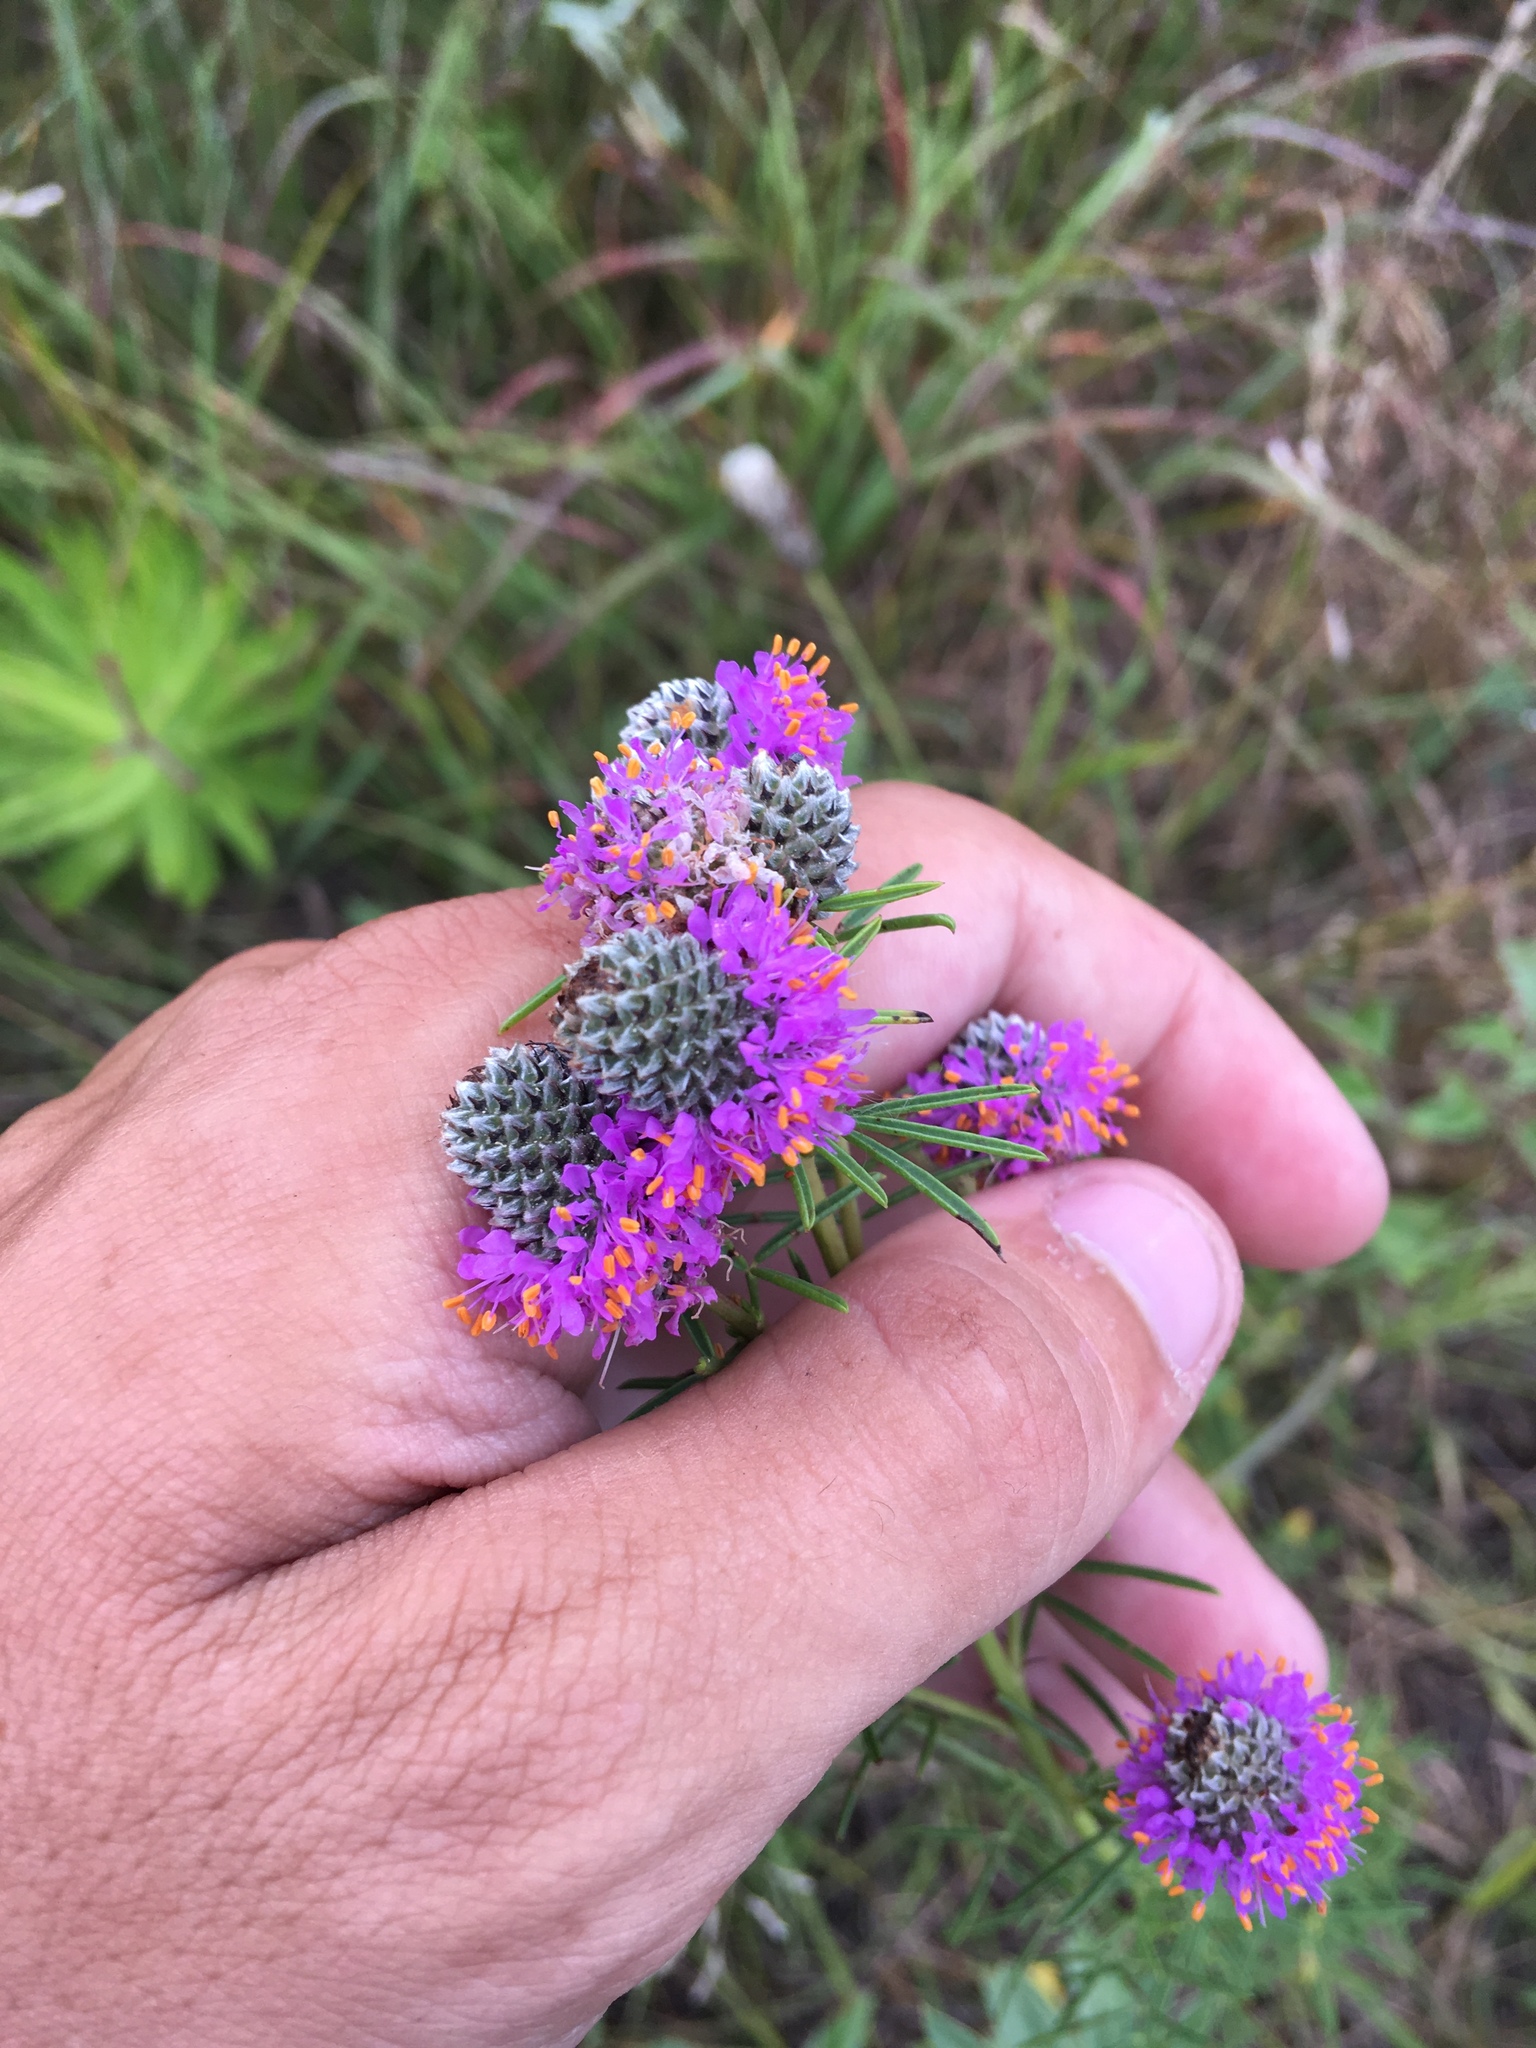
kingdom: Plantae
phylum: Tracheophyta
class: Magnoliopsida
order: Fabales
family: Fabaceae
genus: Dalea
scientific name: Dalea purpurea
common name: Purple prairie-clover
